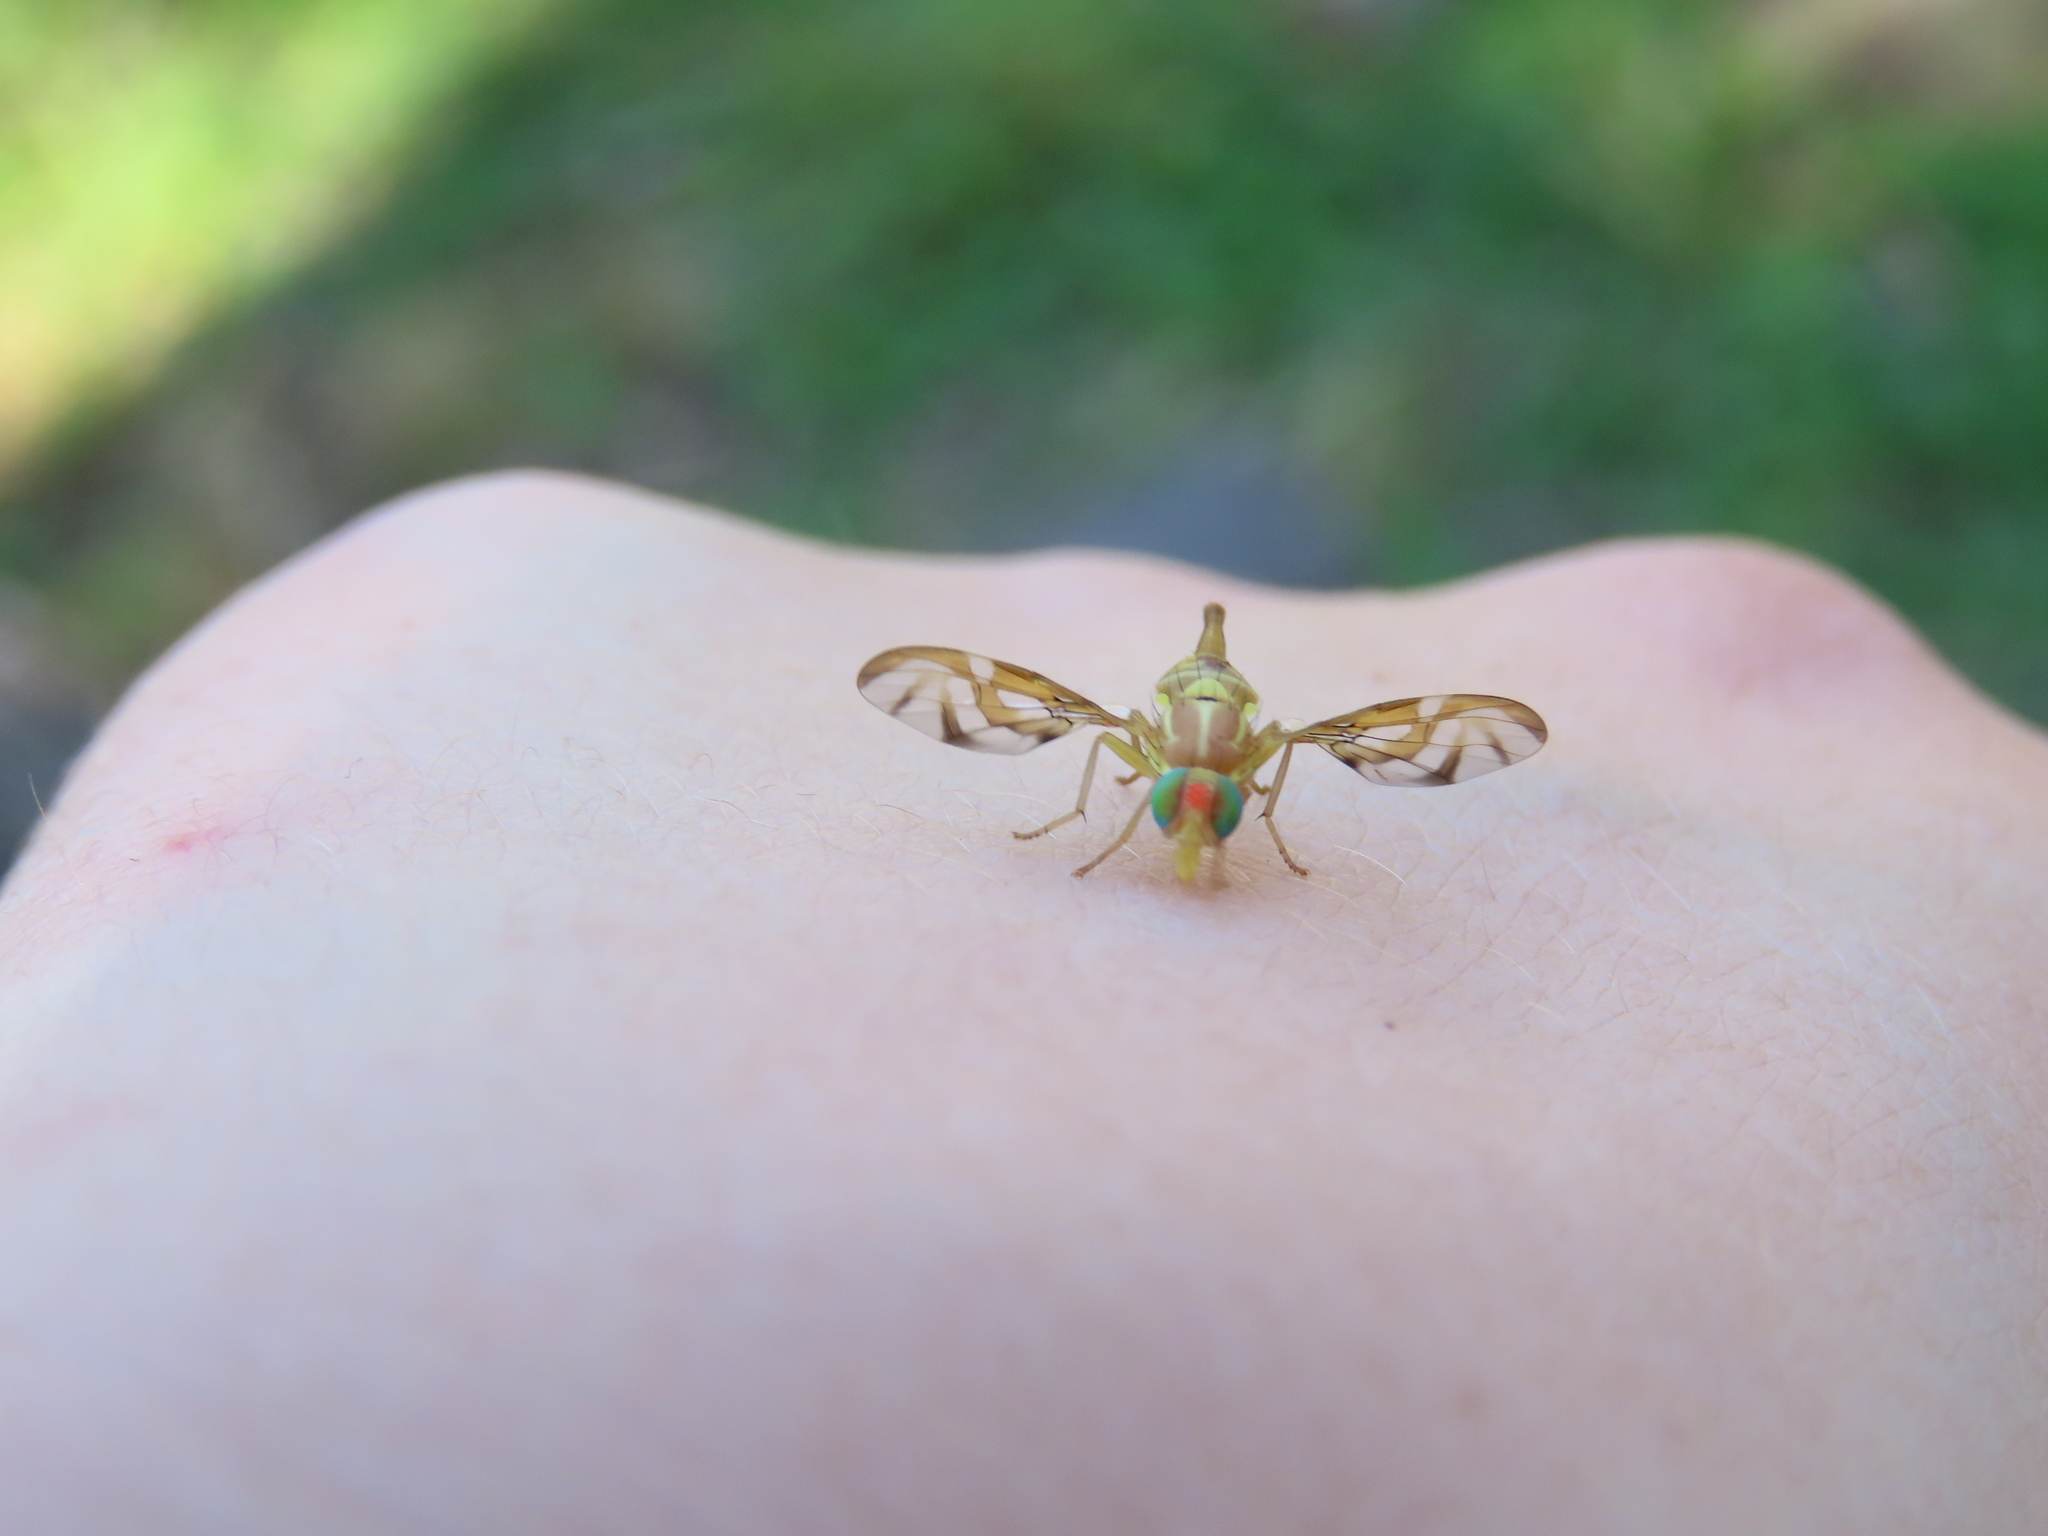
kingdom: Animalia
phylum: Arthropoda
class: Insecta
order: Diptera
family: Tephritidae
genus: Anastrepha
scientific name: Anastrepha ludens
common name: Mexican fruit fly
